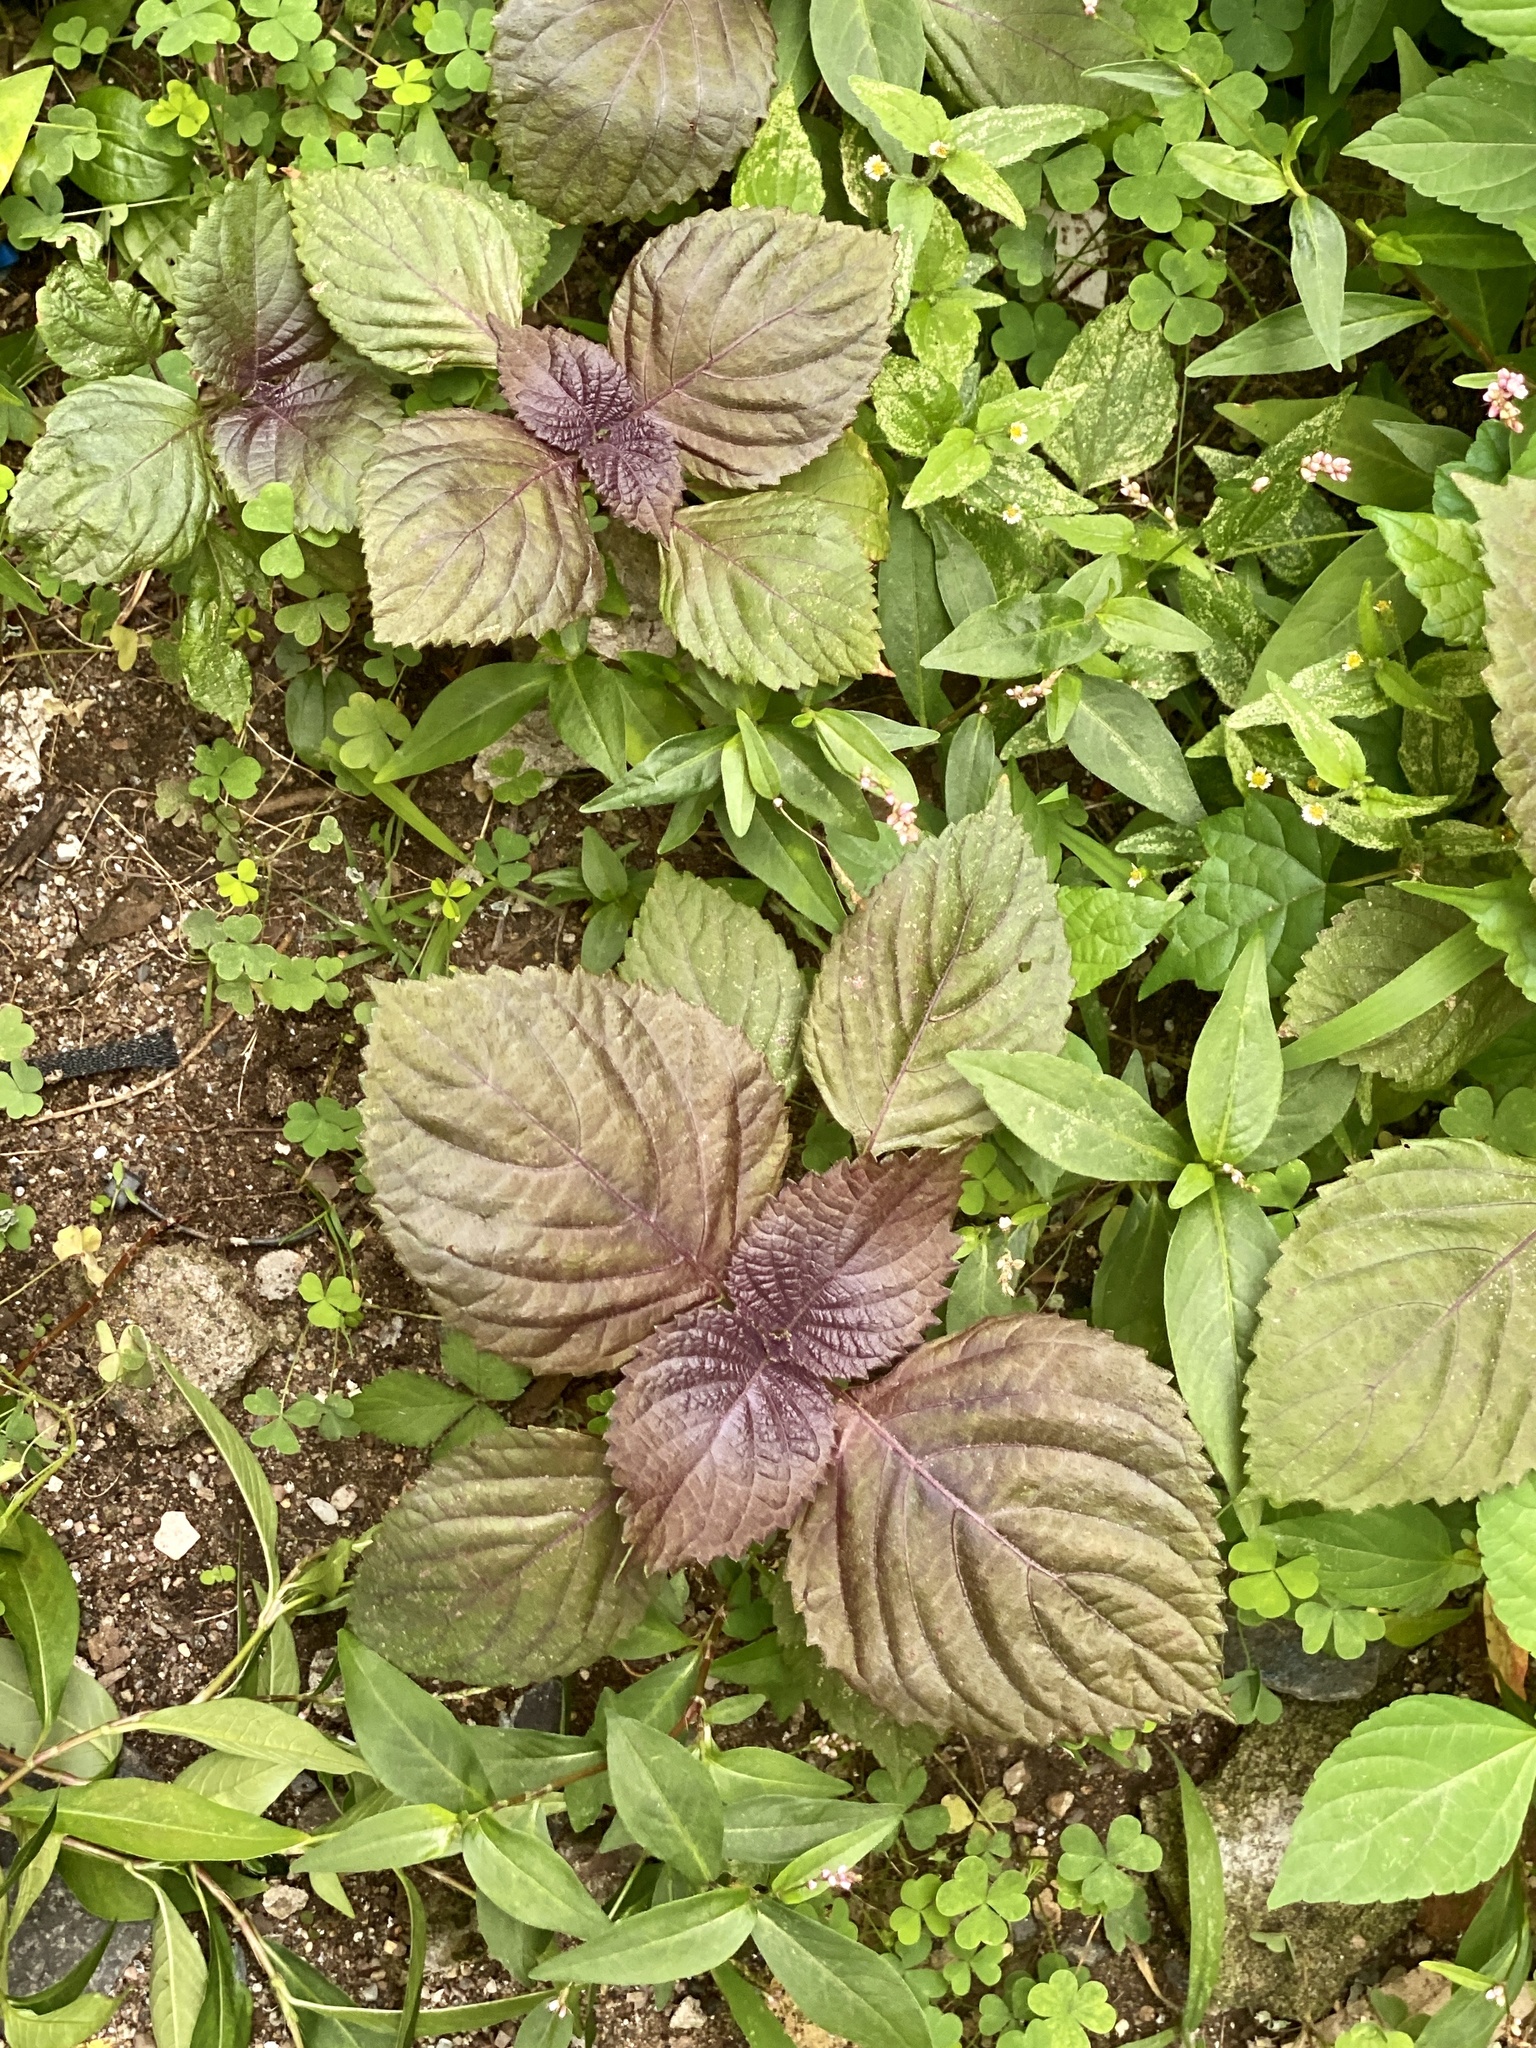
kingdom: Plantae
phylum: Tracheophyta
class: Magnoliopsida
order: Lamiales
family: Lamiaceae
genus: Perilla
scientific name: Perilla frutescens
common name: Perilla
